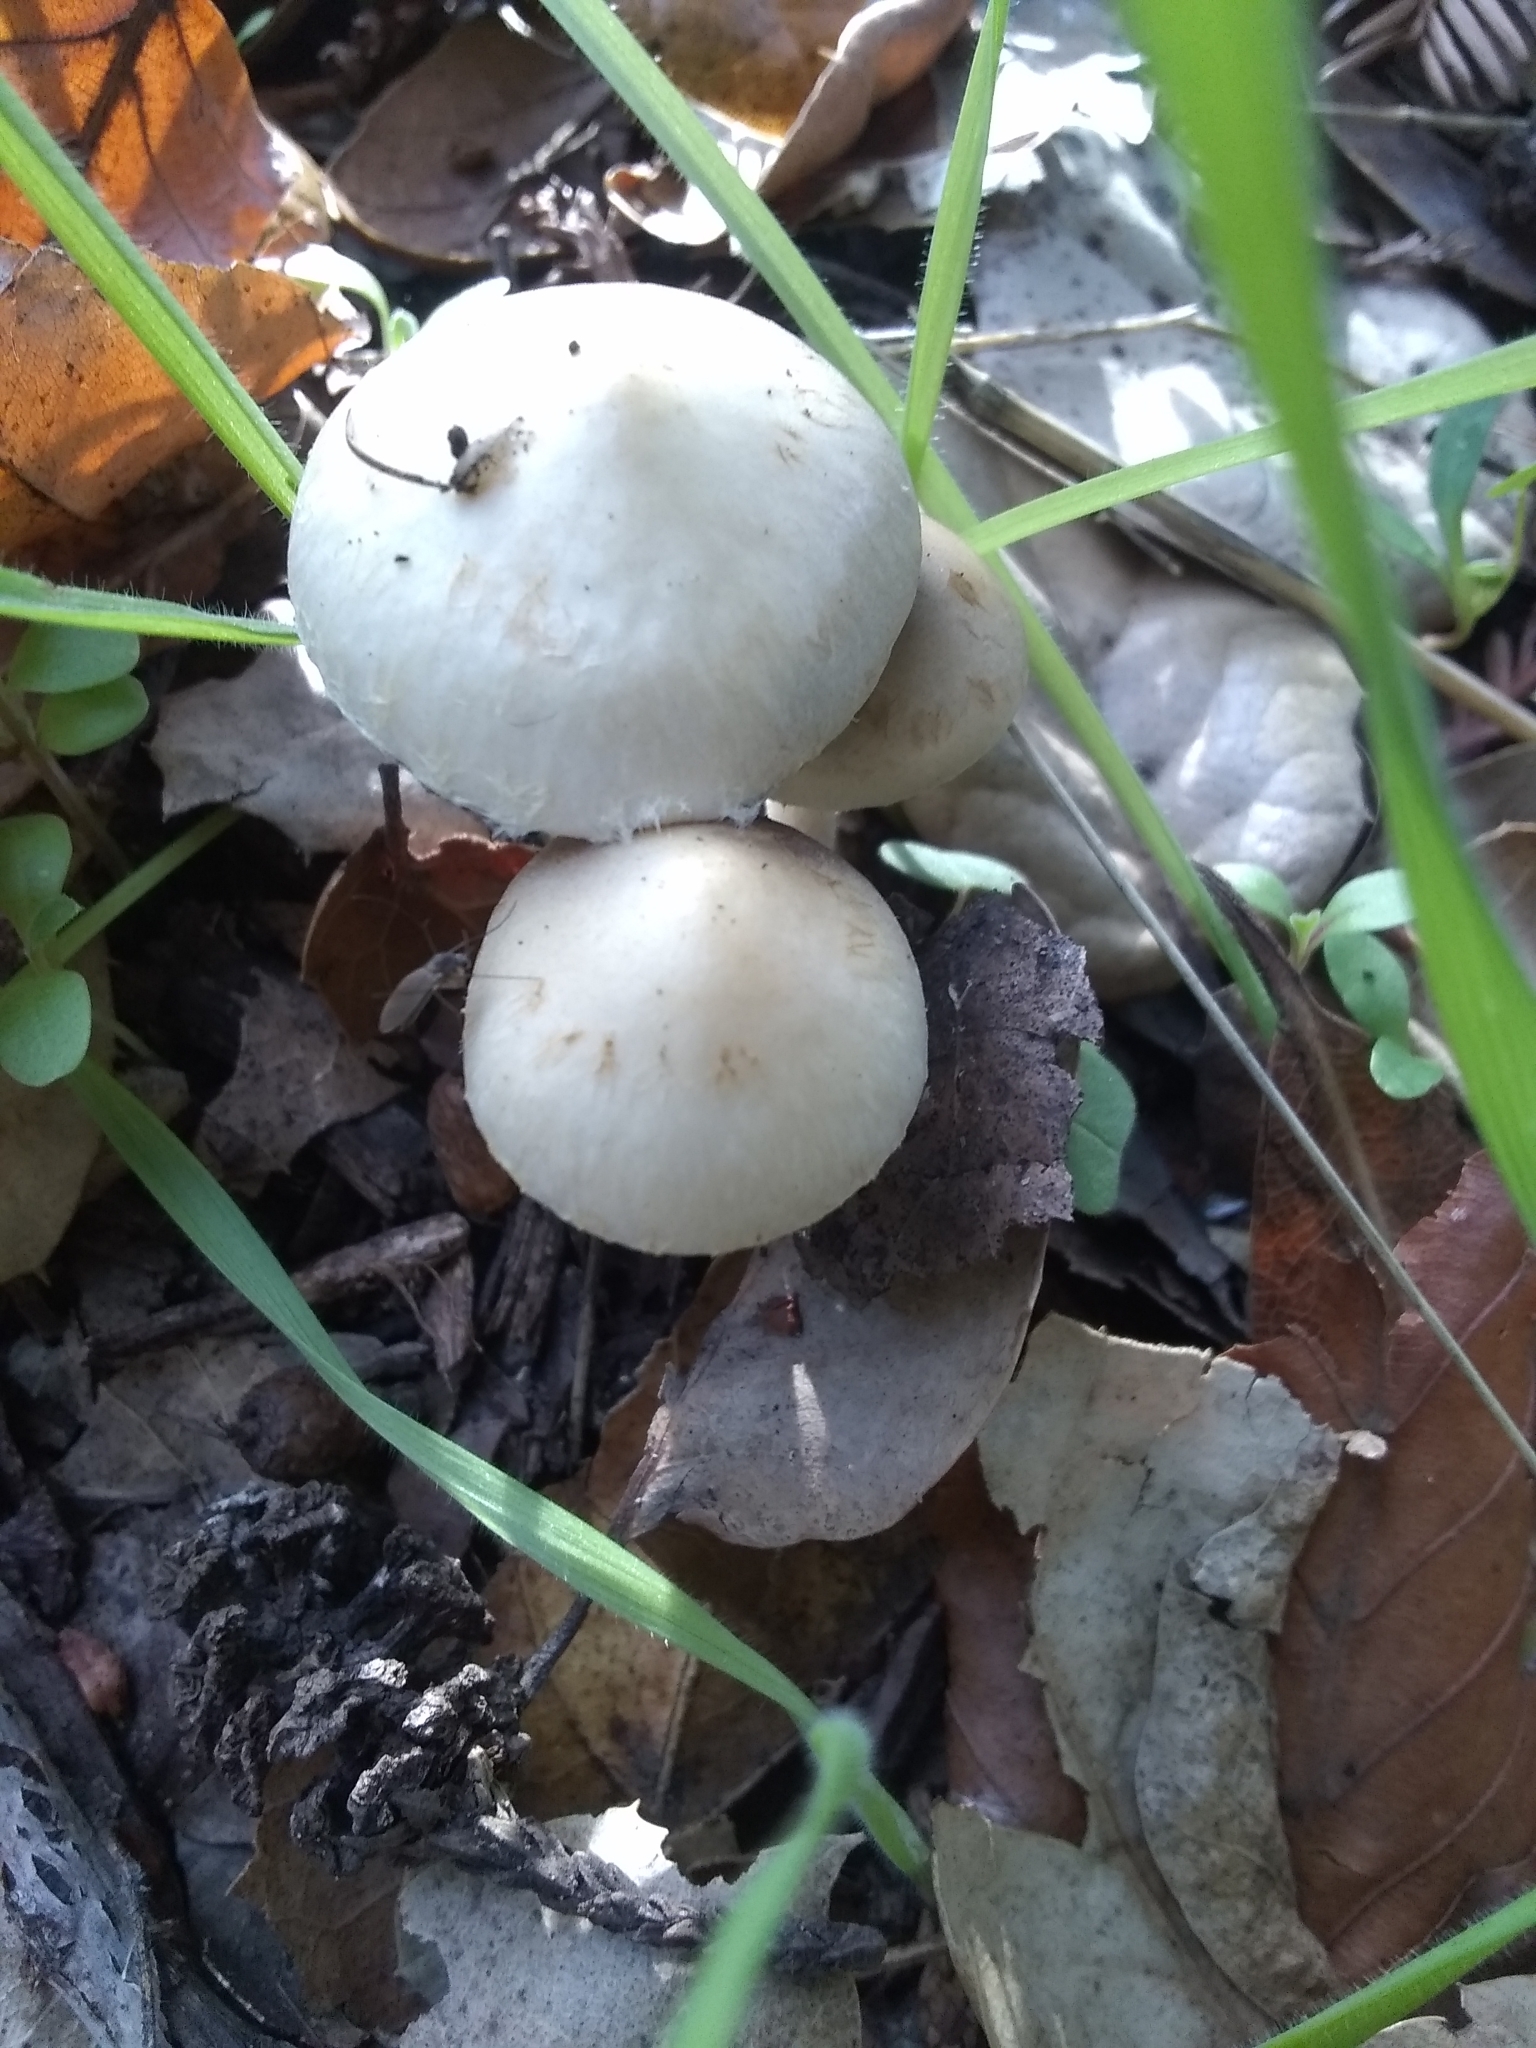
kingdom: Fungi
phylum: Basidiomycota
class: Agaricomycetes
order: Agaricales
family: Strophariaceae
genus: Leratiomyces
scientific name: Leratiomyces percevalii
